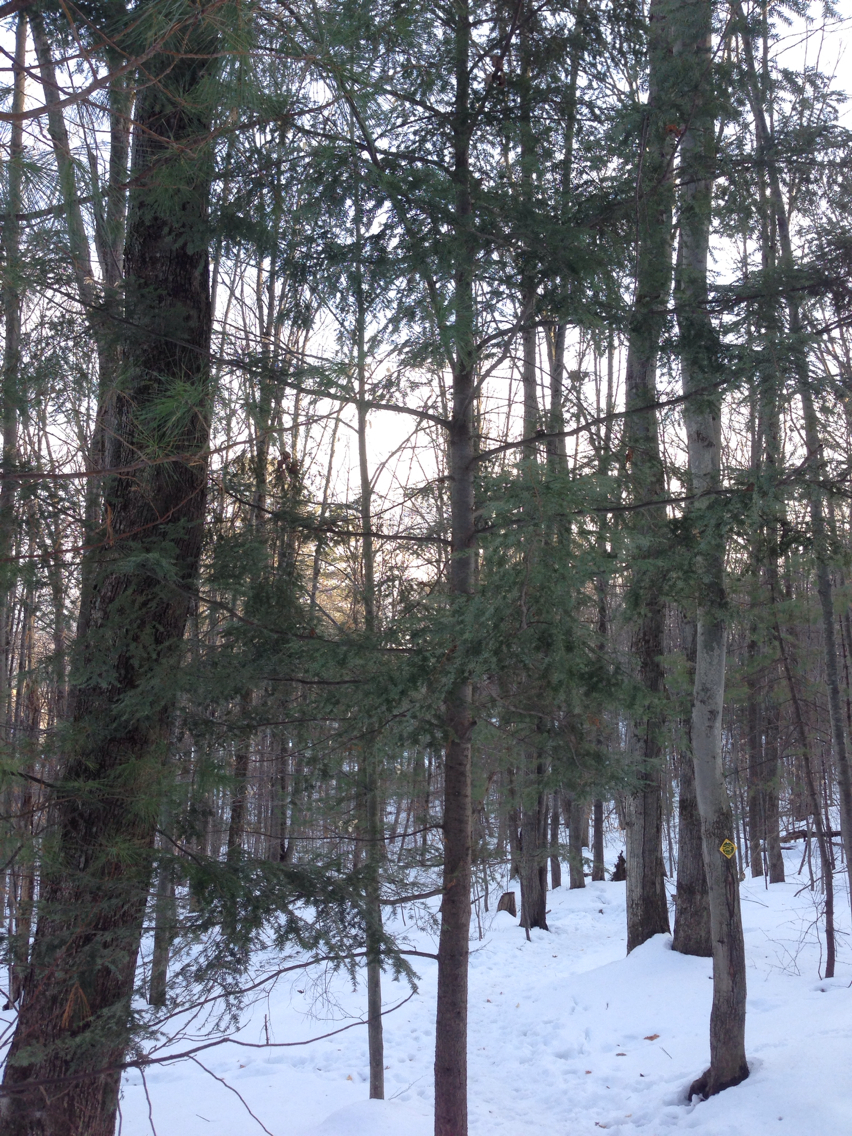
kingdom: Plantae
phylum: Tracheophyta
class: Pinopsida
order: Pinales
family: Pinaceae
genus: Tsuga
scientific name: Tsuga canadensis
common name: Eastern hemlock
